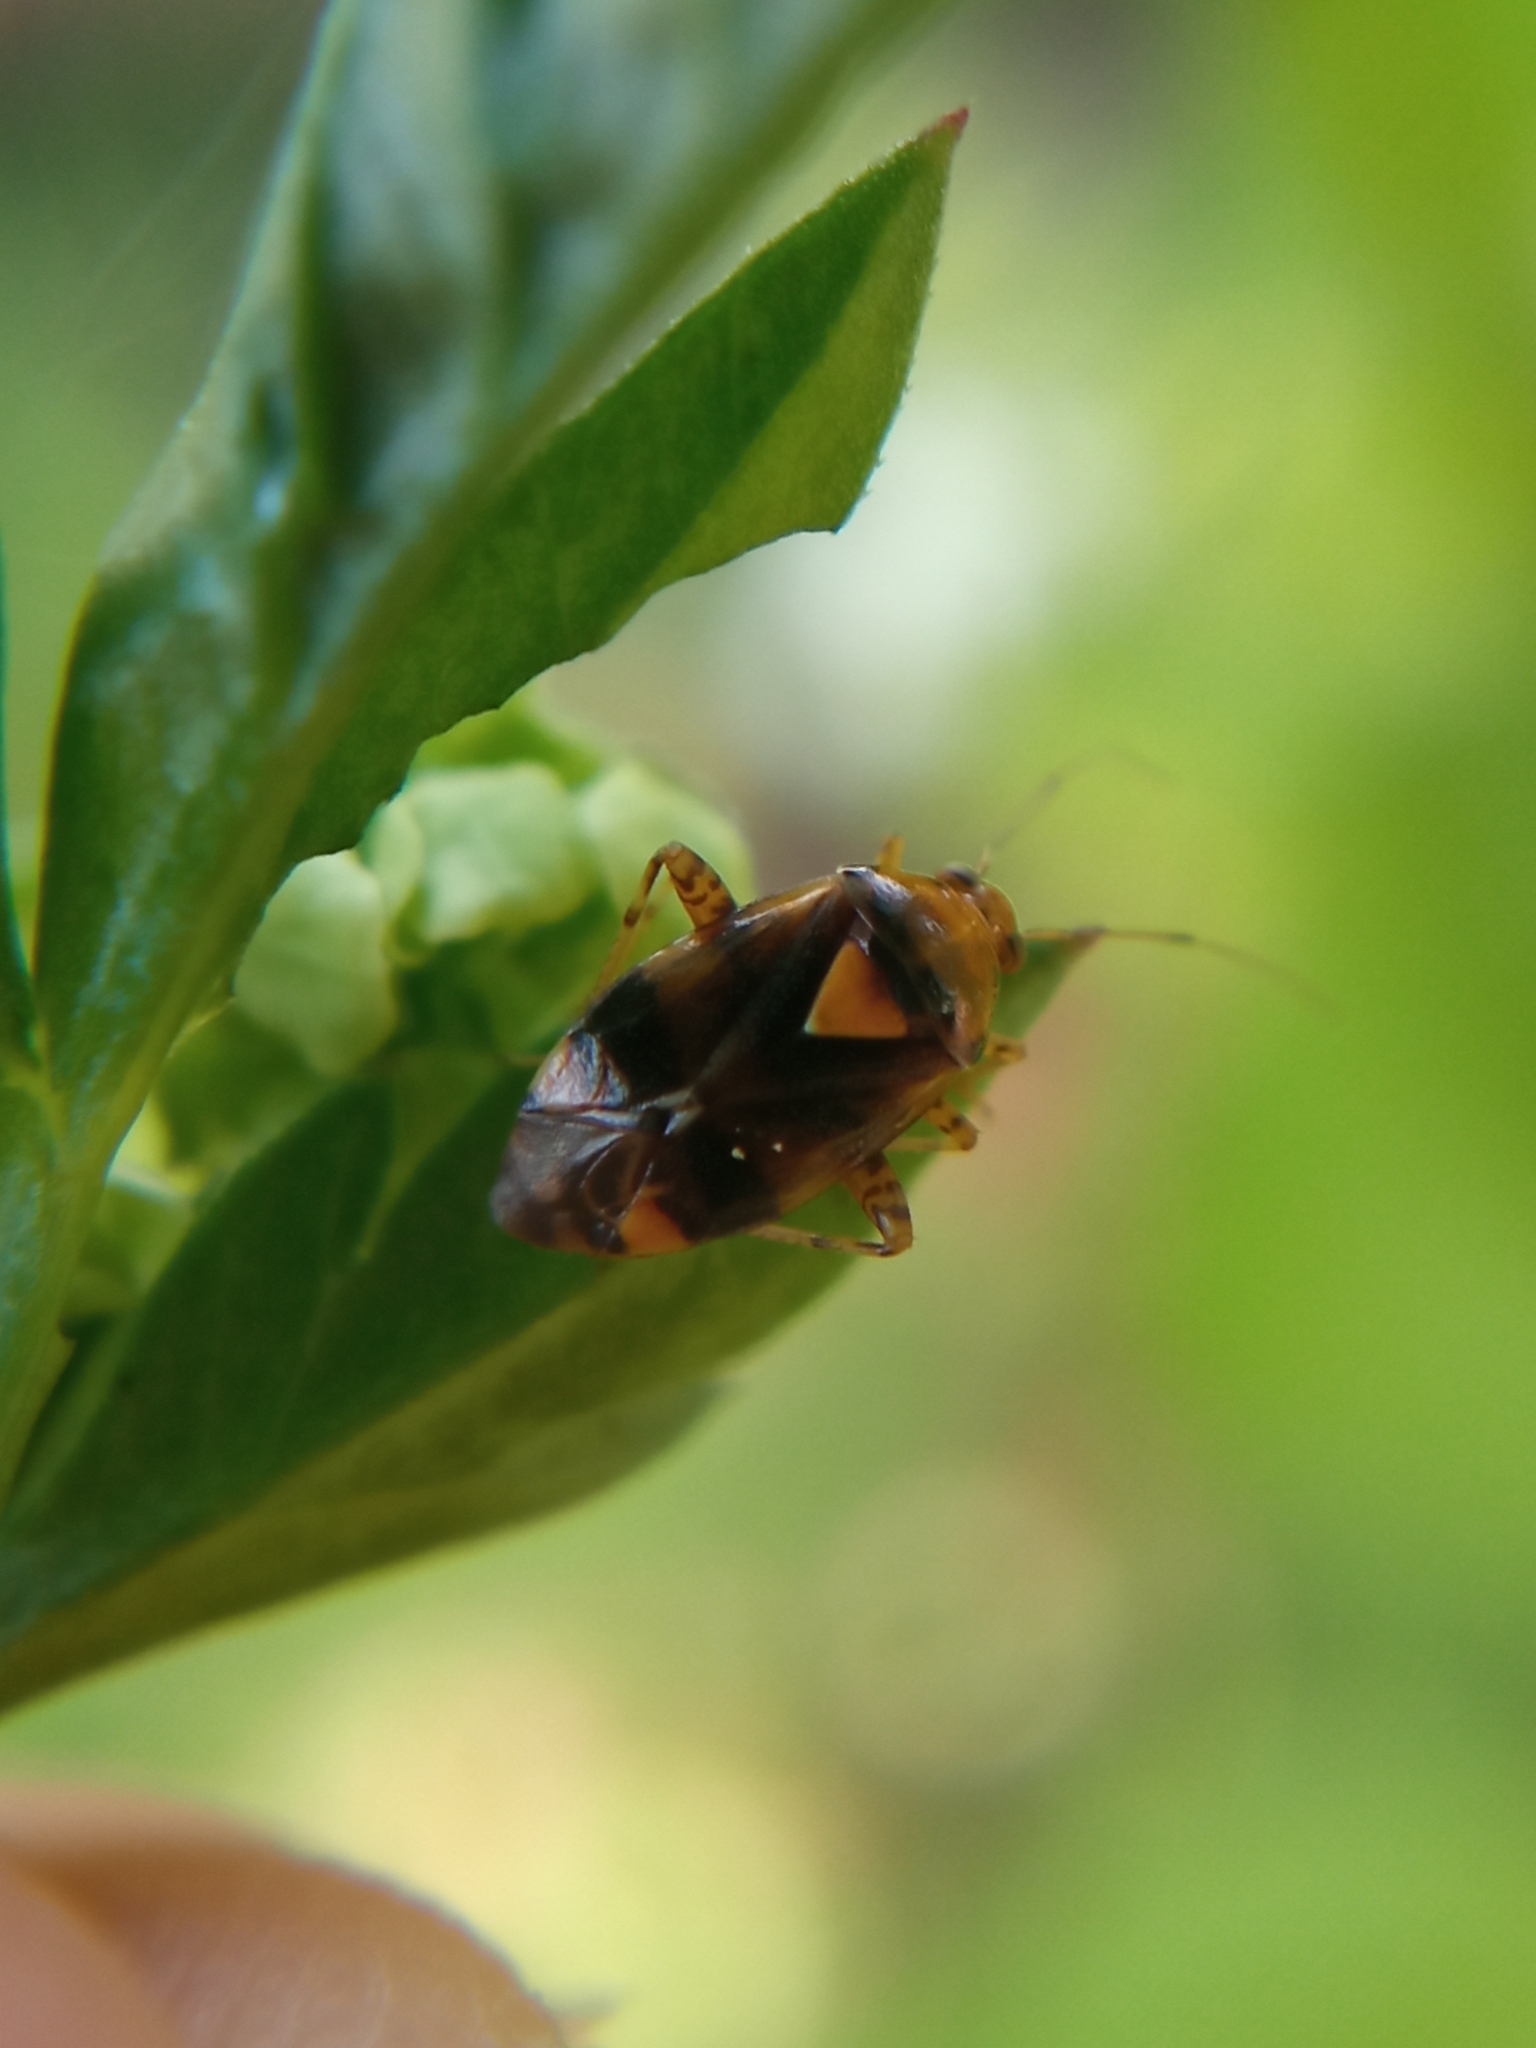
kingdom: Animalia
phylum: Arthropoda
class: Insecta
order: Hemiptera
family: Miridae
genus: Liocoris
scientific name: Liocoris tripustulatus
